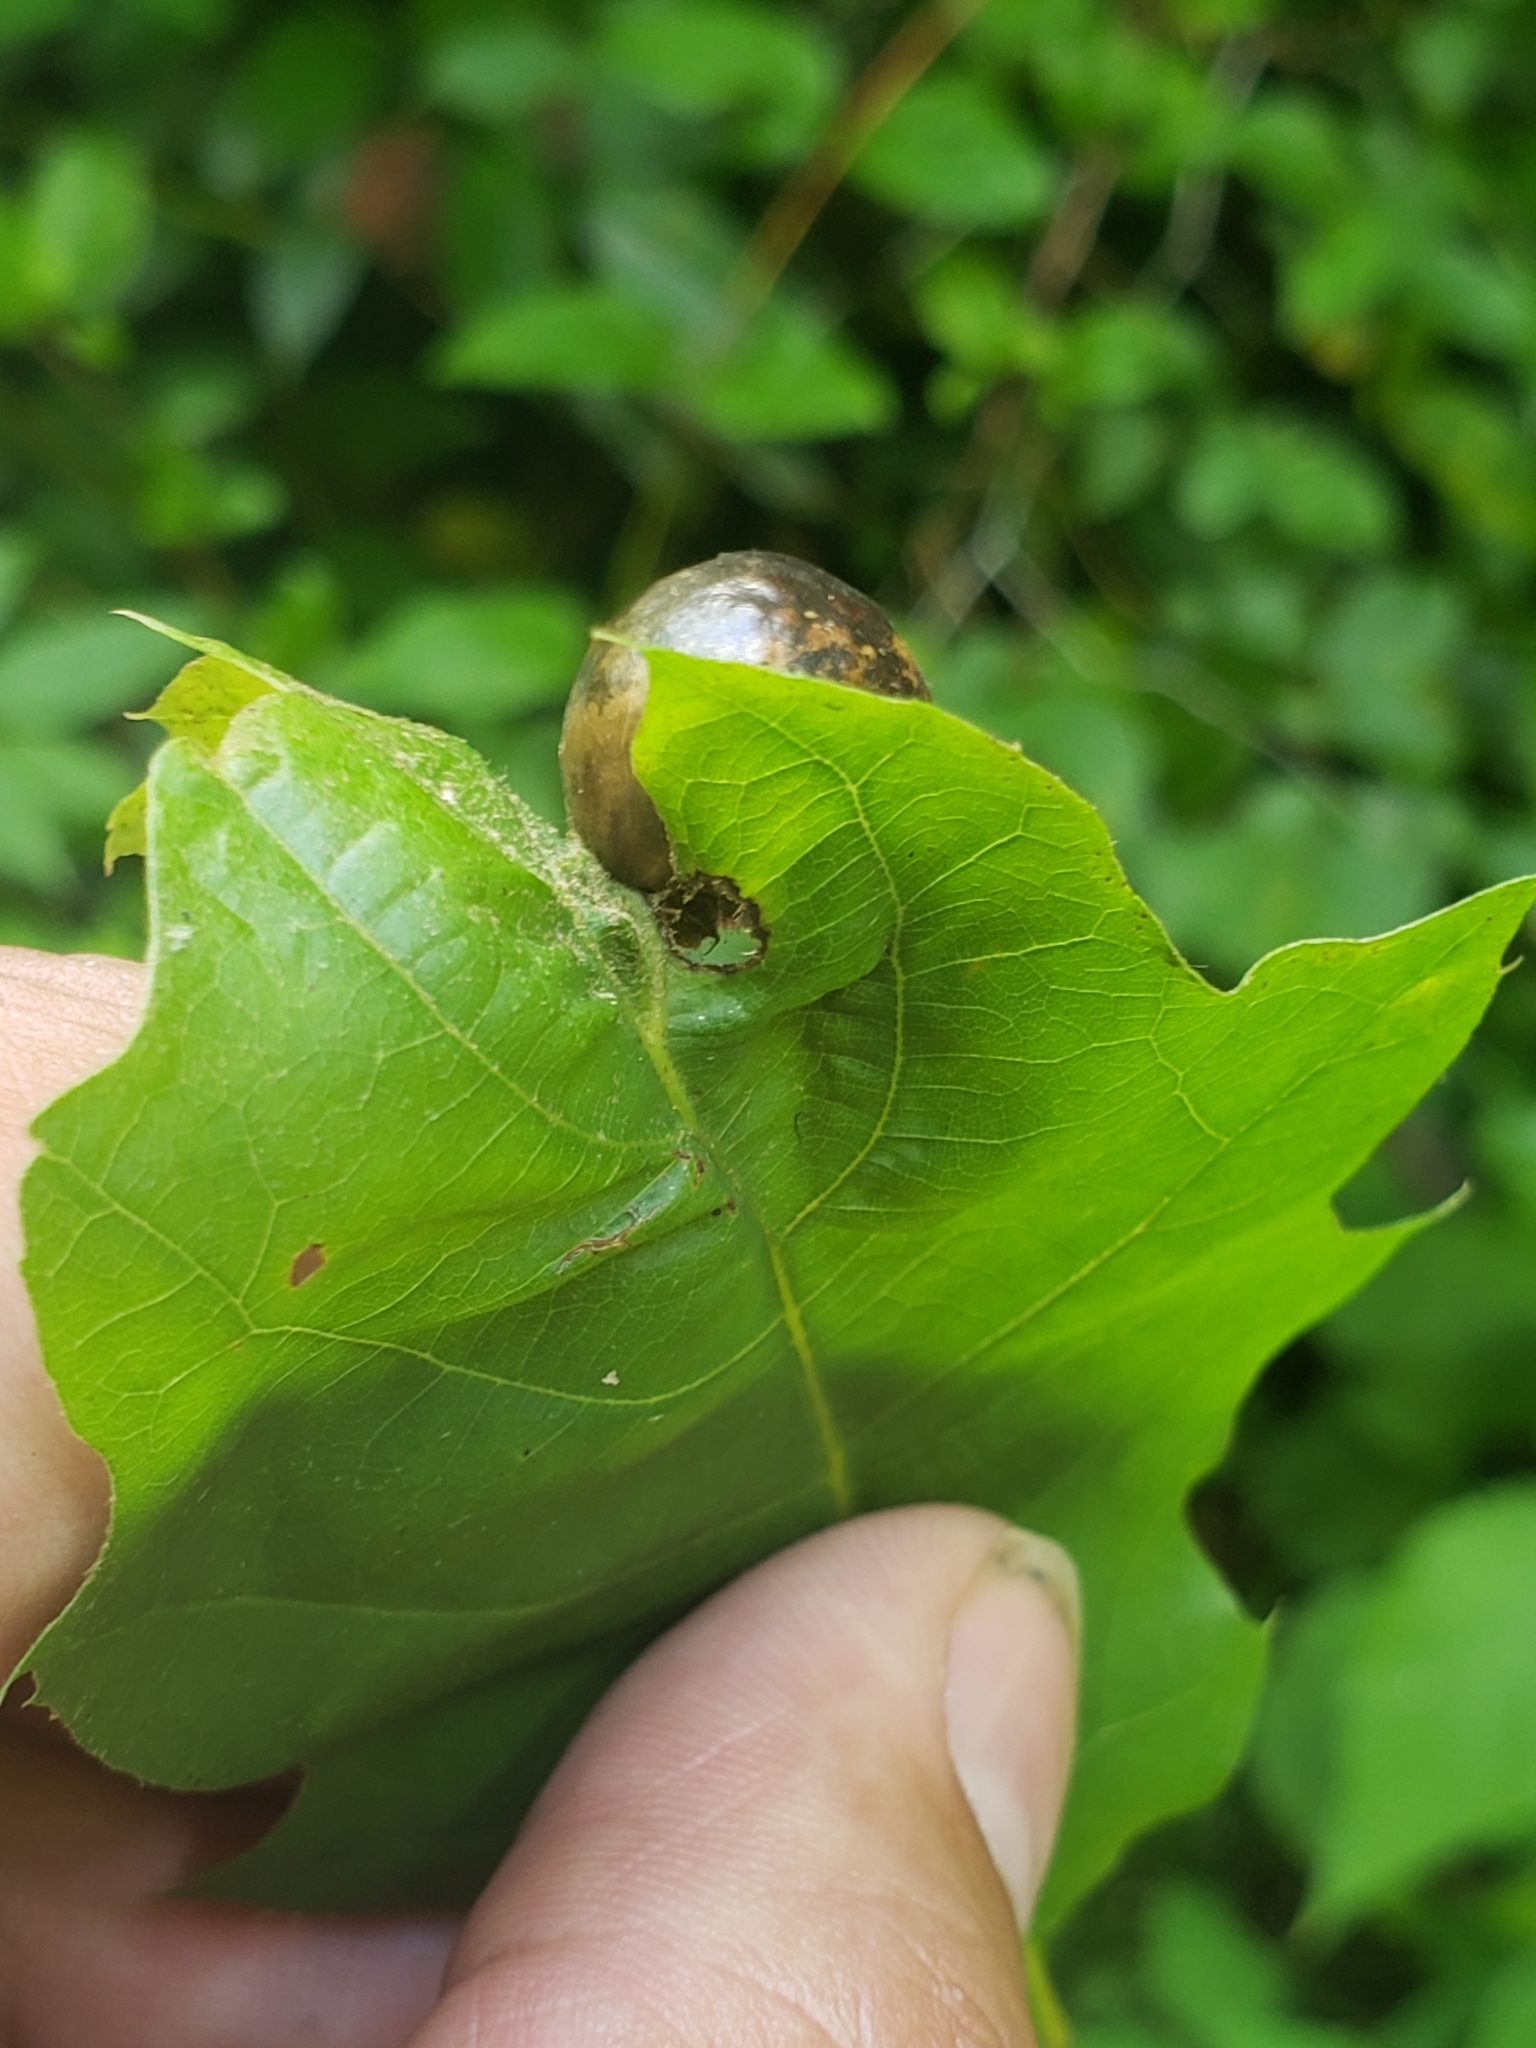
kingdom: Animalia
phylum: Arthropoda
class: Insecta
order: Hymenoptera
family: Cynipidae
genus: Amphibolips
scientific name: Amphibolips
